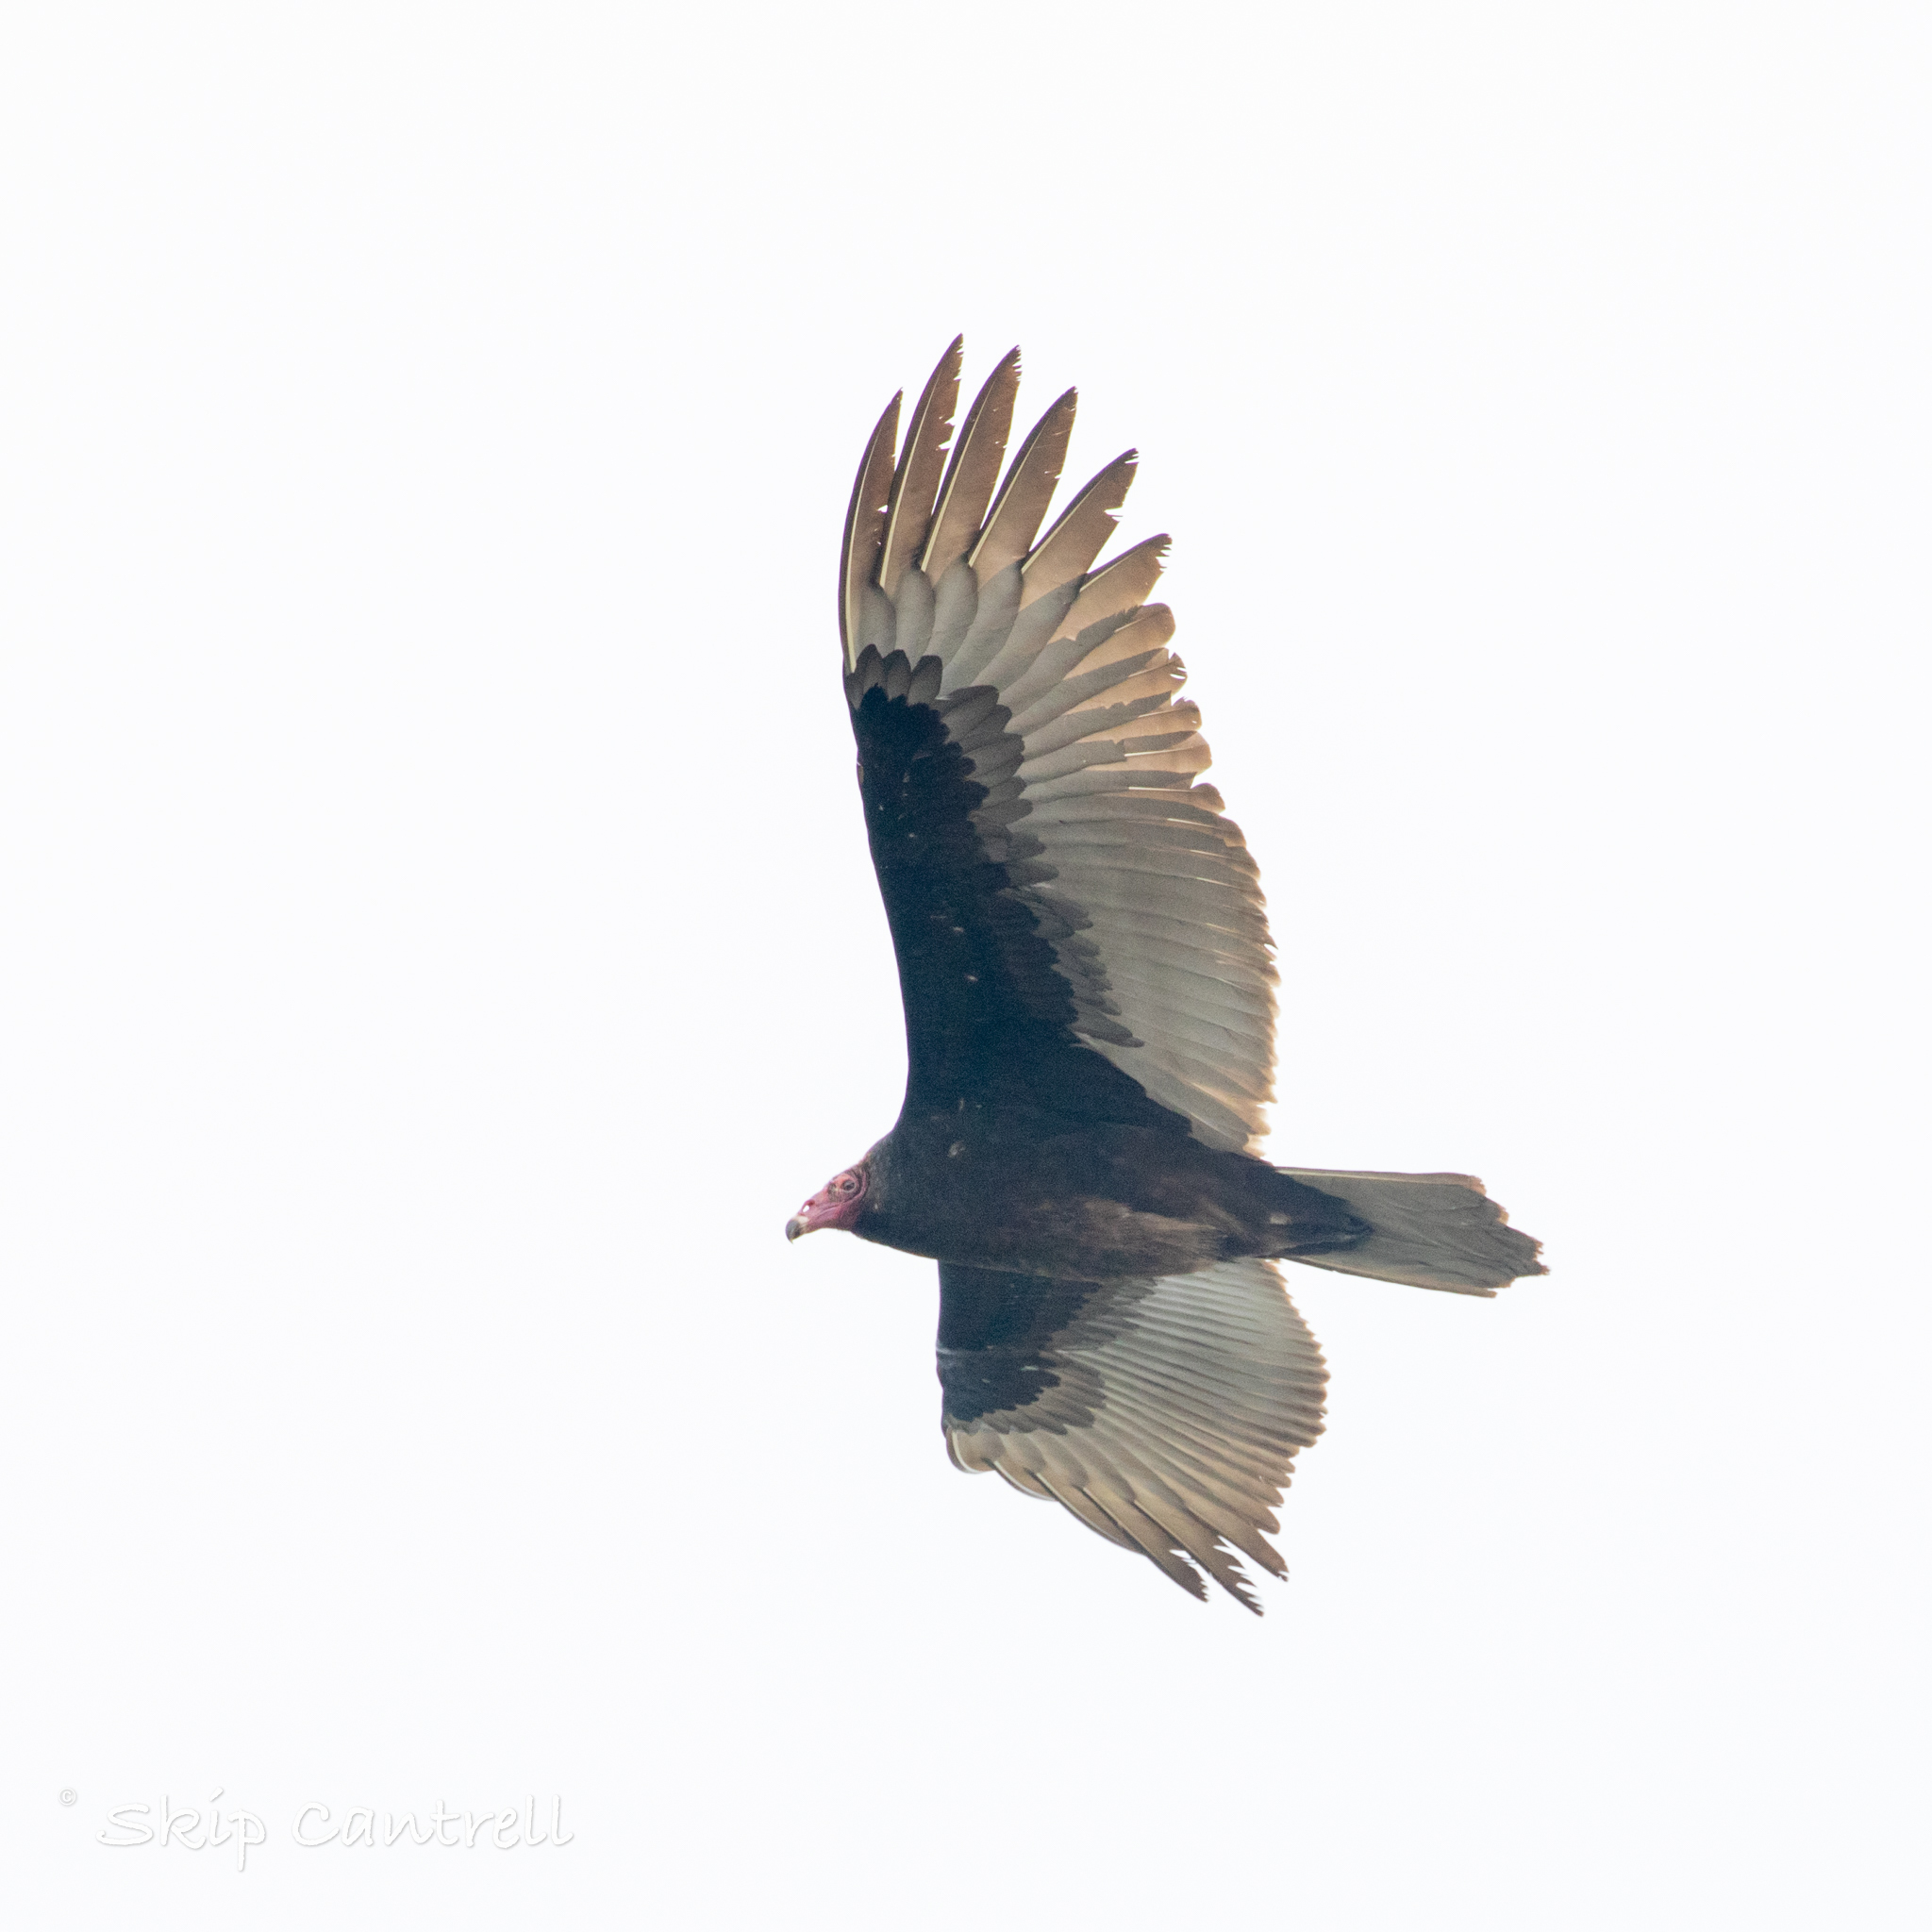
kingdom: Animalia
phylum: Chordata
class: Aves
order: Accipitriformes
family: Cathartidae
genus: Cathartes
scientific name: Cathartes aura
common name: Turkey vulture
